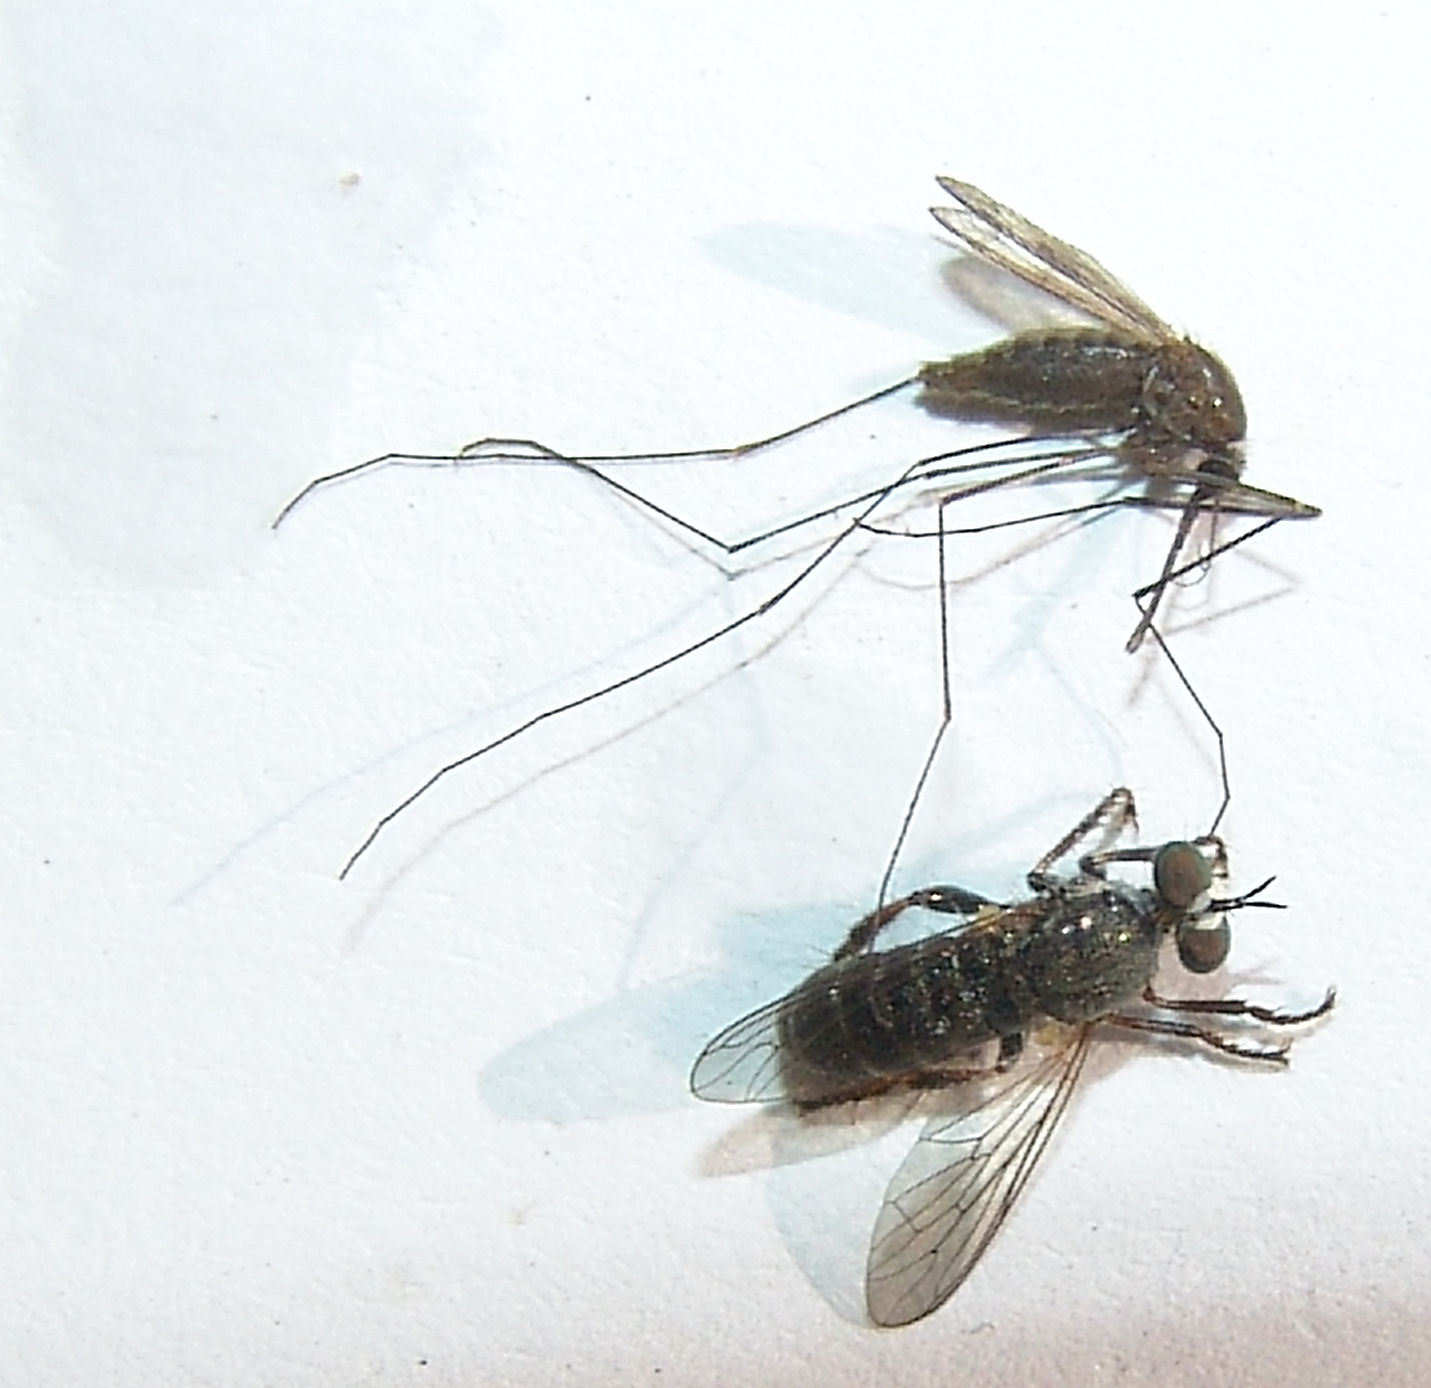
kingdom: Animalia
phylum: Arthropoda
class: Insecta
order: Diptera
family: Asilidae
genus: Atomosia
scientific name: Atomosia puella
